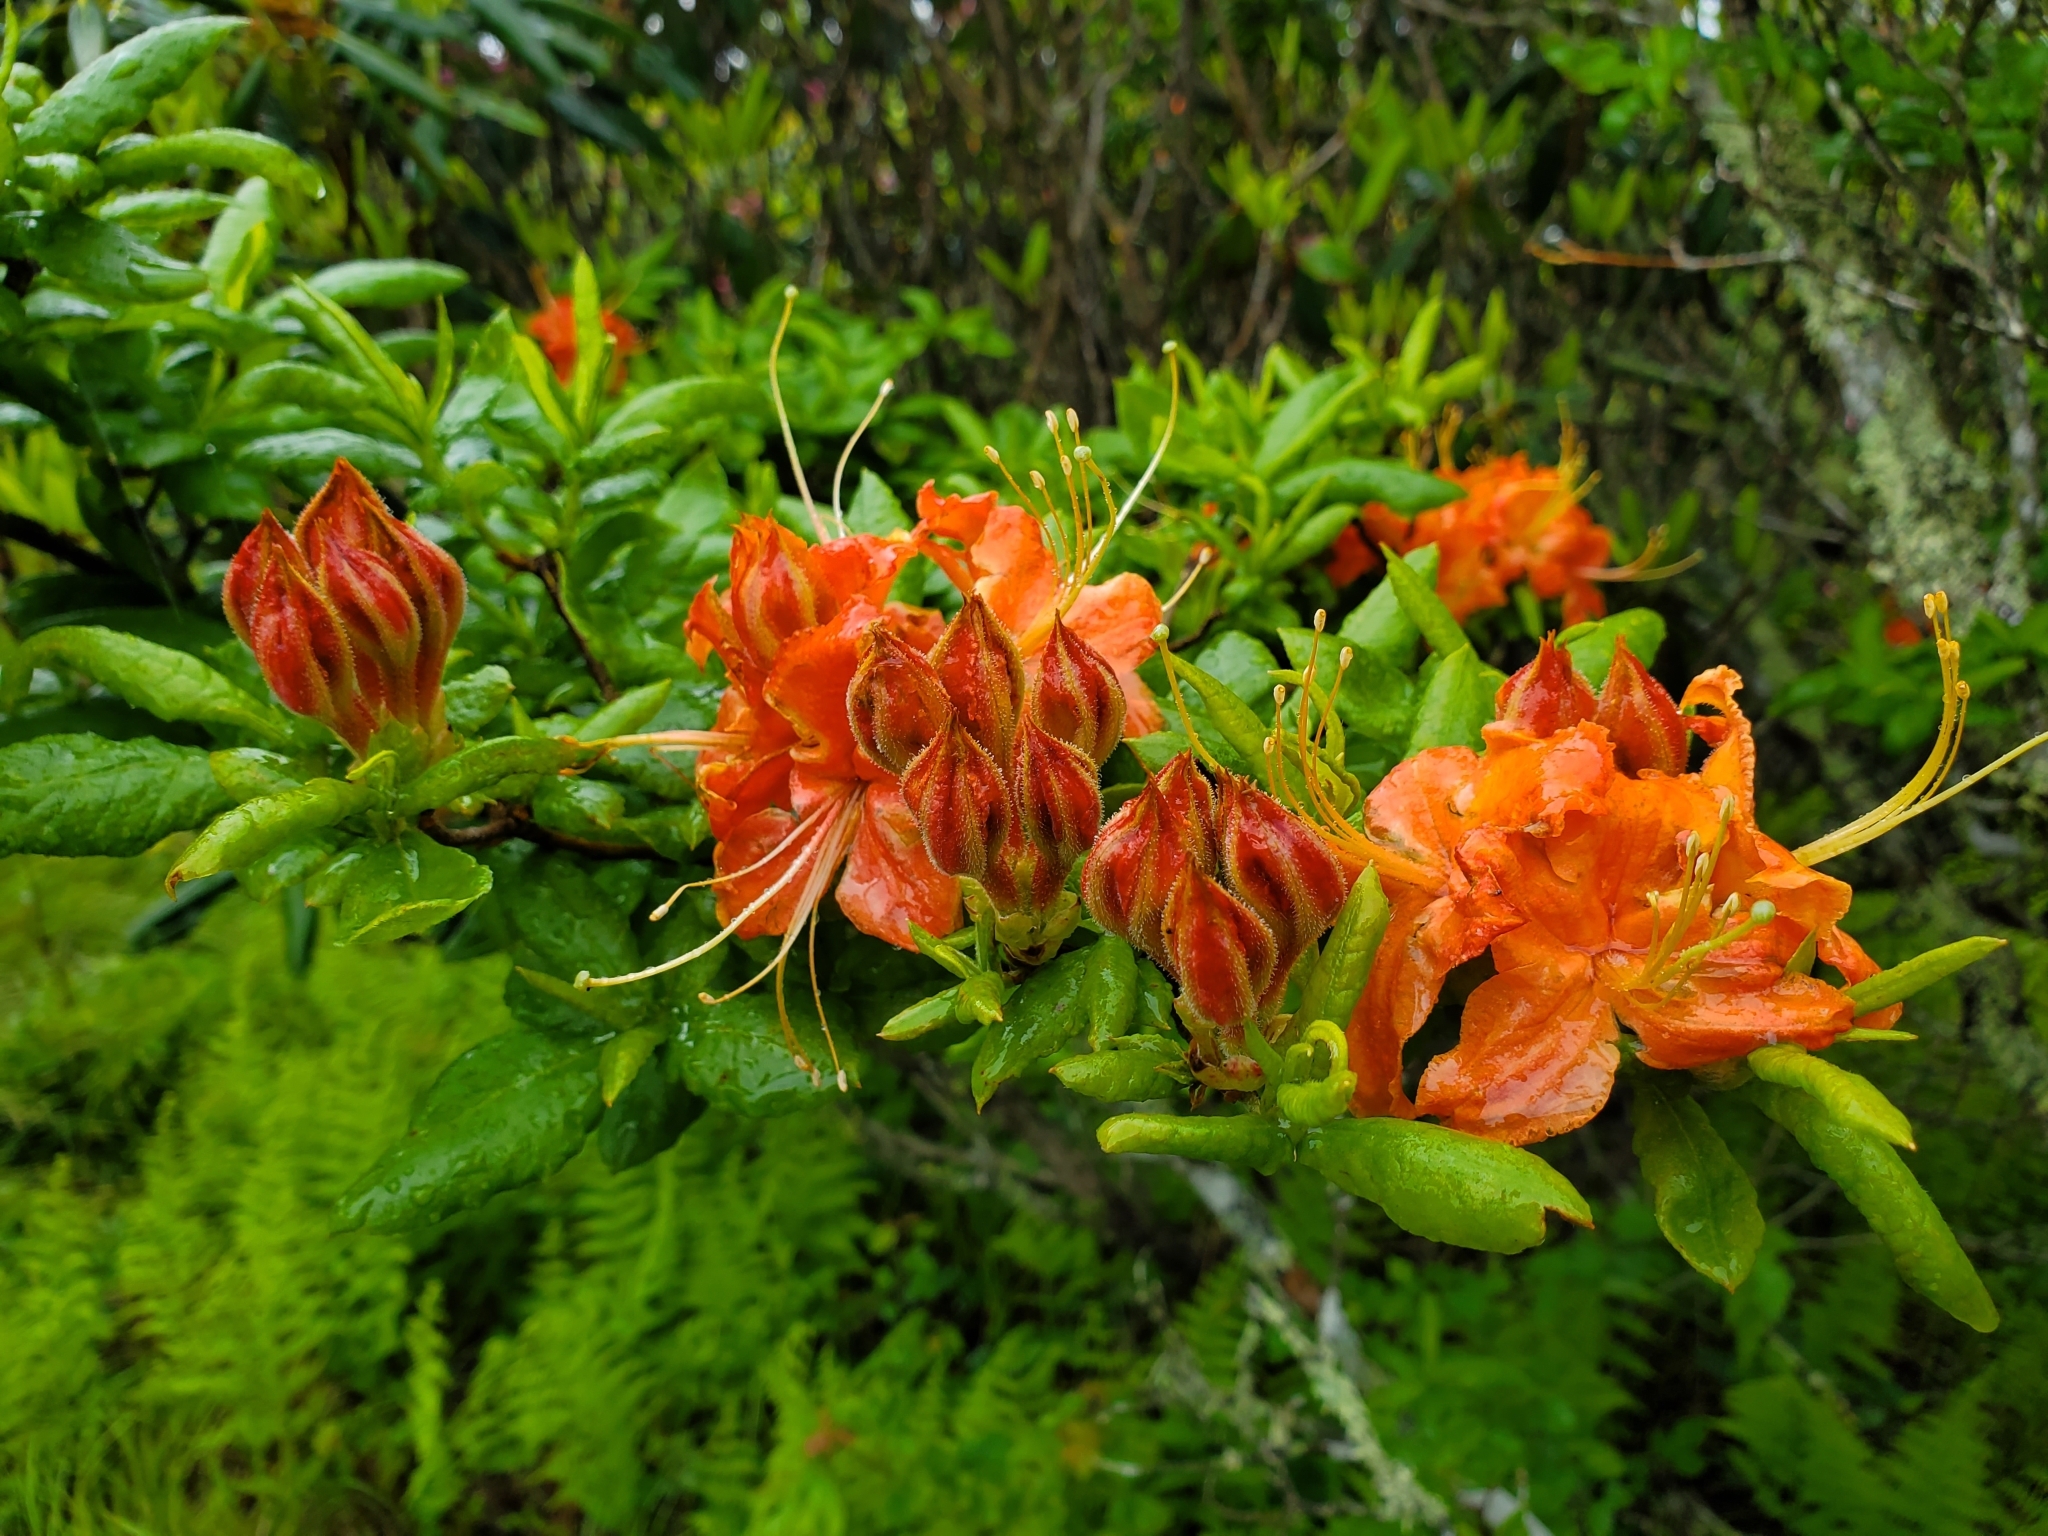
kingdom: Plantae
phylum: Tracheophyta
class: Magnoliopsida
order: Ericales
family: Ericaceae
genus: Rhododendron
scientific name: Rhododendron calendulaceum
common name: Flame azalea
